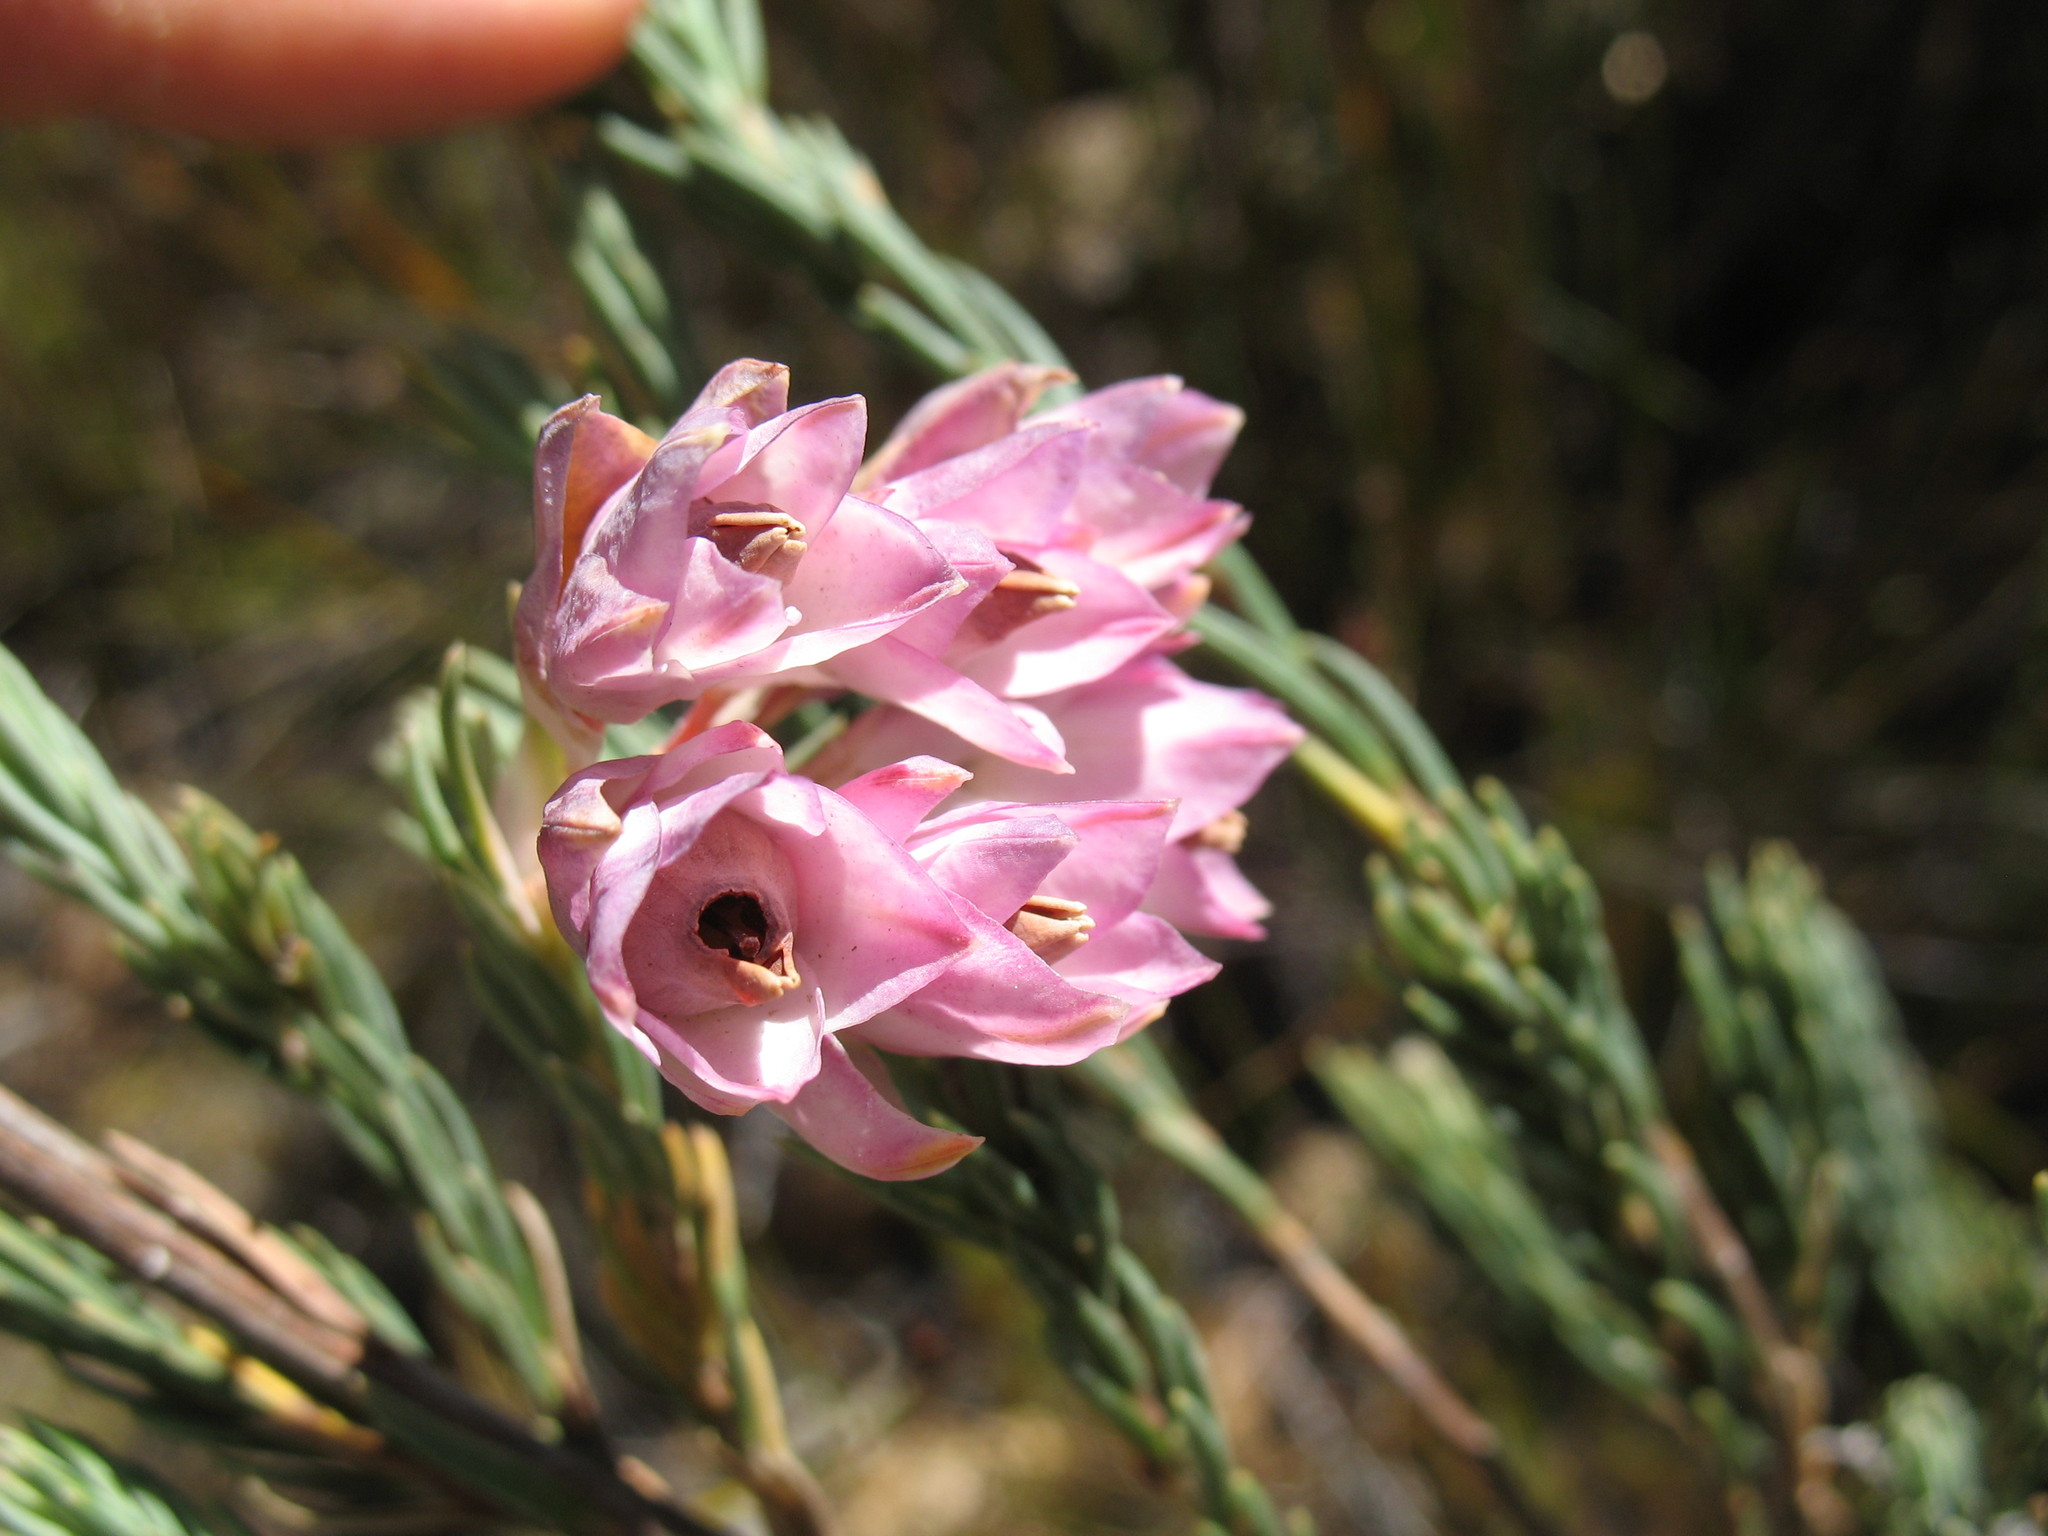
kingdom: Plantae
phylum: Tracheophyta
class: Magnoliopsida
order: Ericales
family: Ericaceae
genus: Erica
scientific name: Erica glauca
